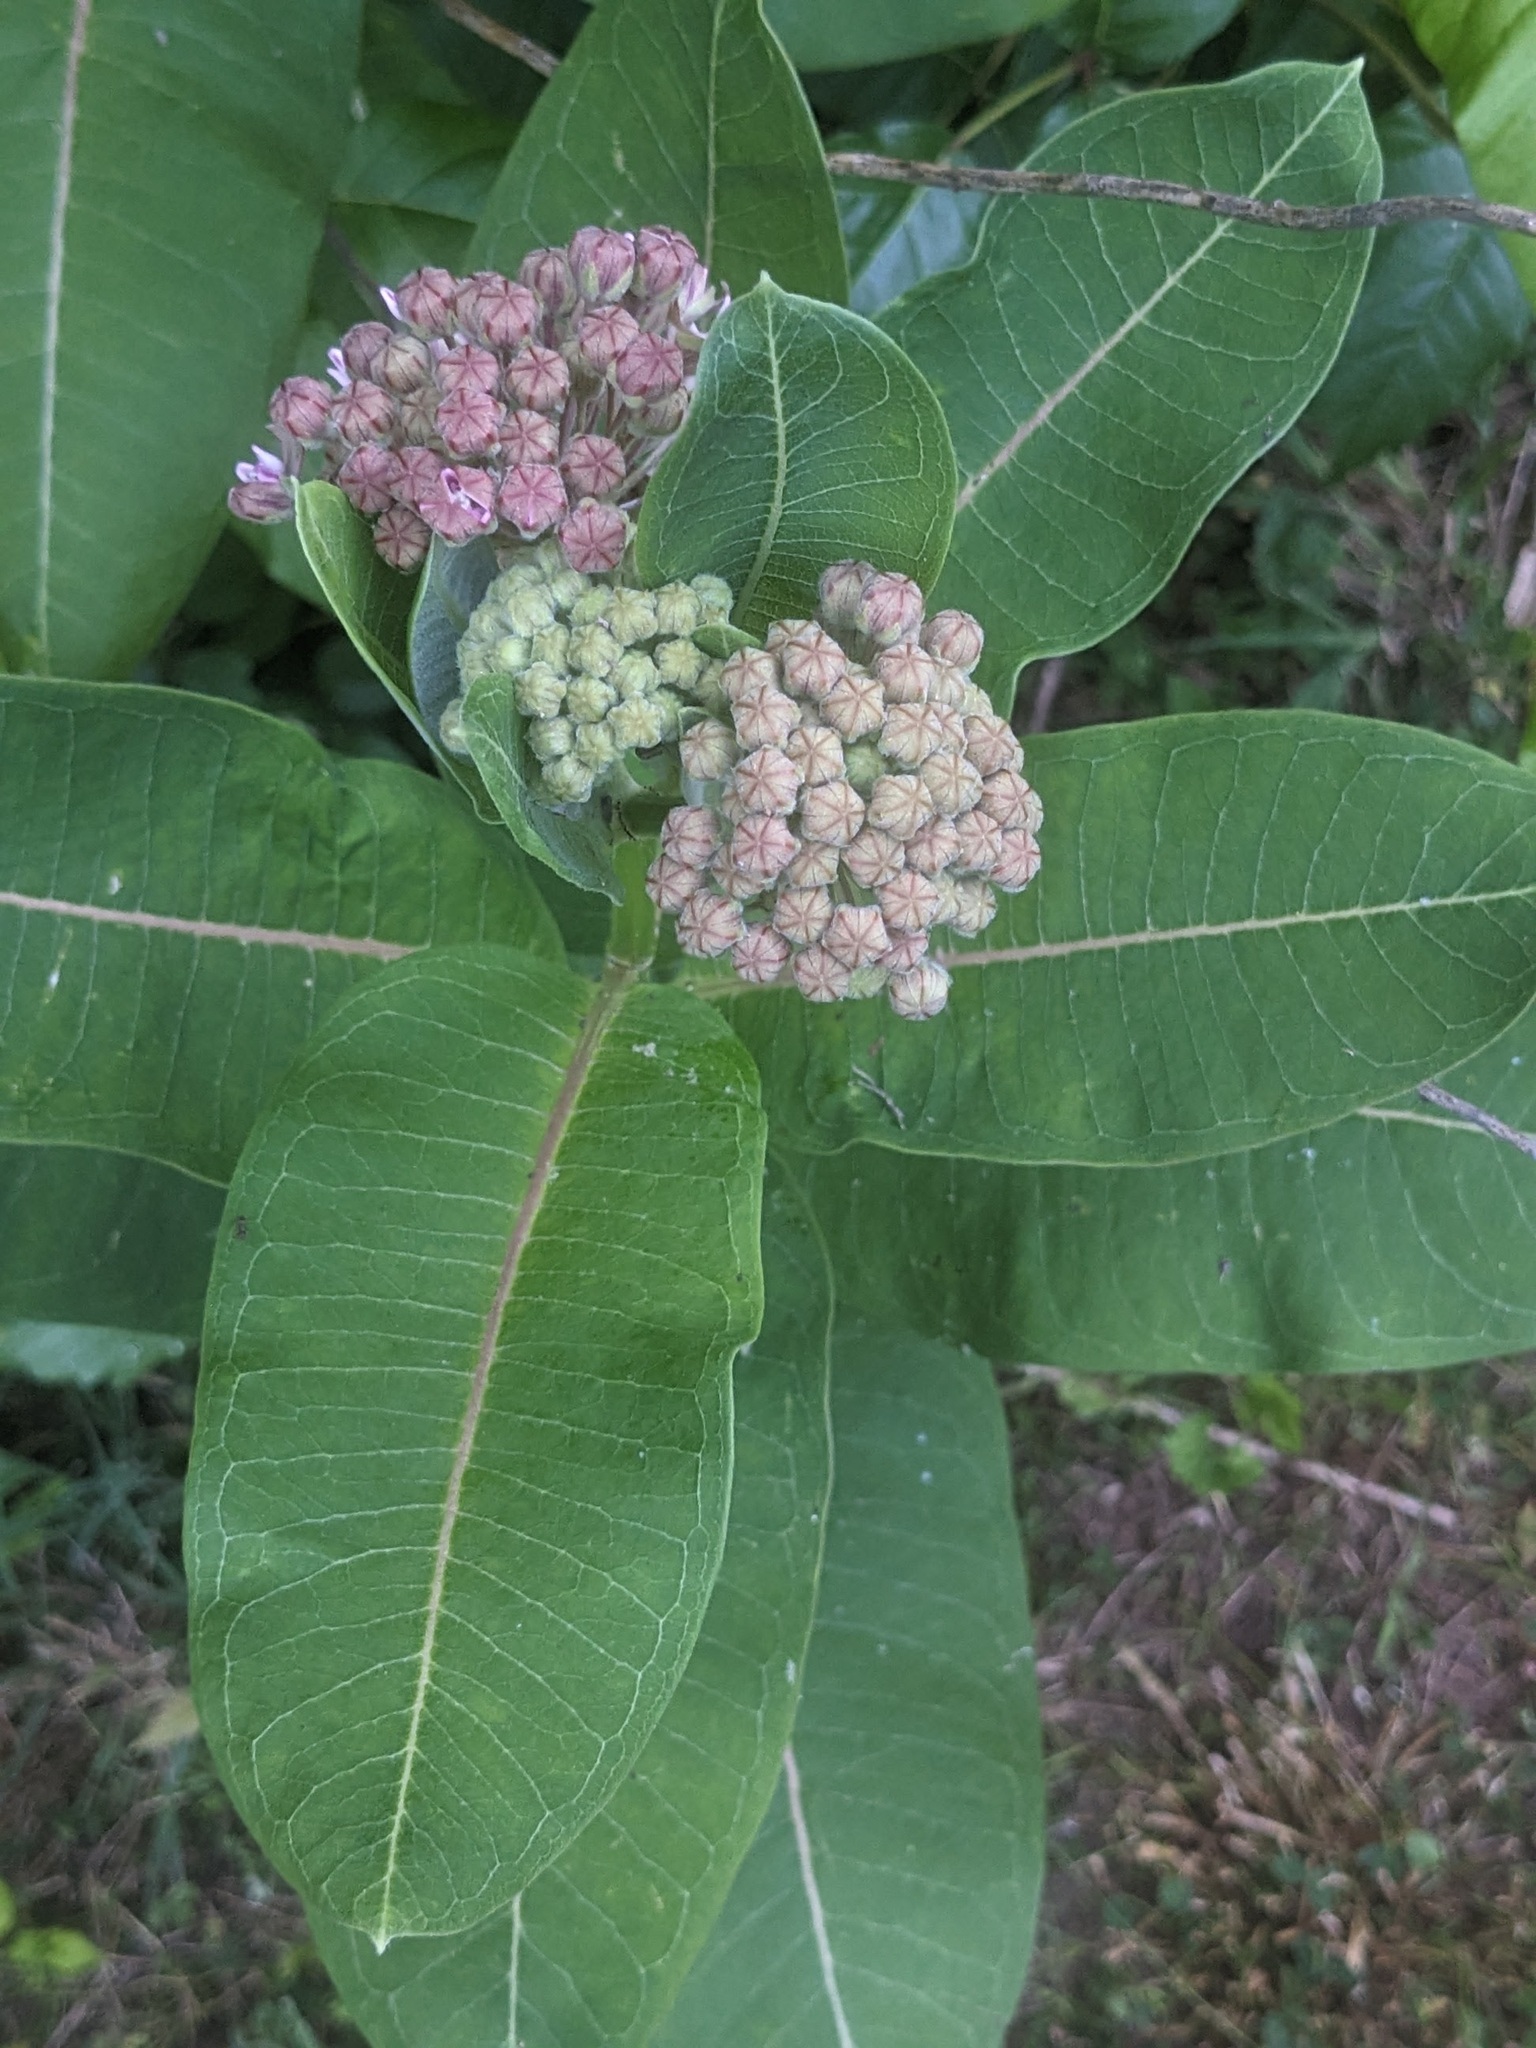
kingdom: Plantae
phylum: Tracheophyta
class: Magnoliopsida
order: Gentianales
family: Apocynaceae
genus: Asclepias
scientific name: Asclepias syriaca
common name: Common milkweed
